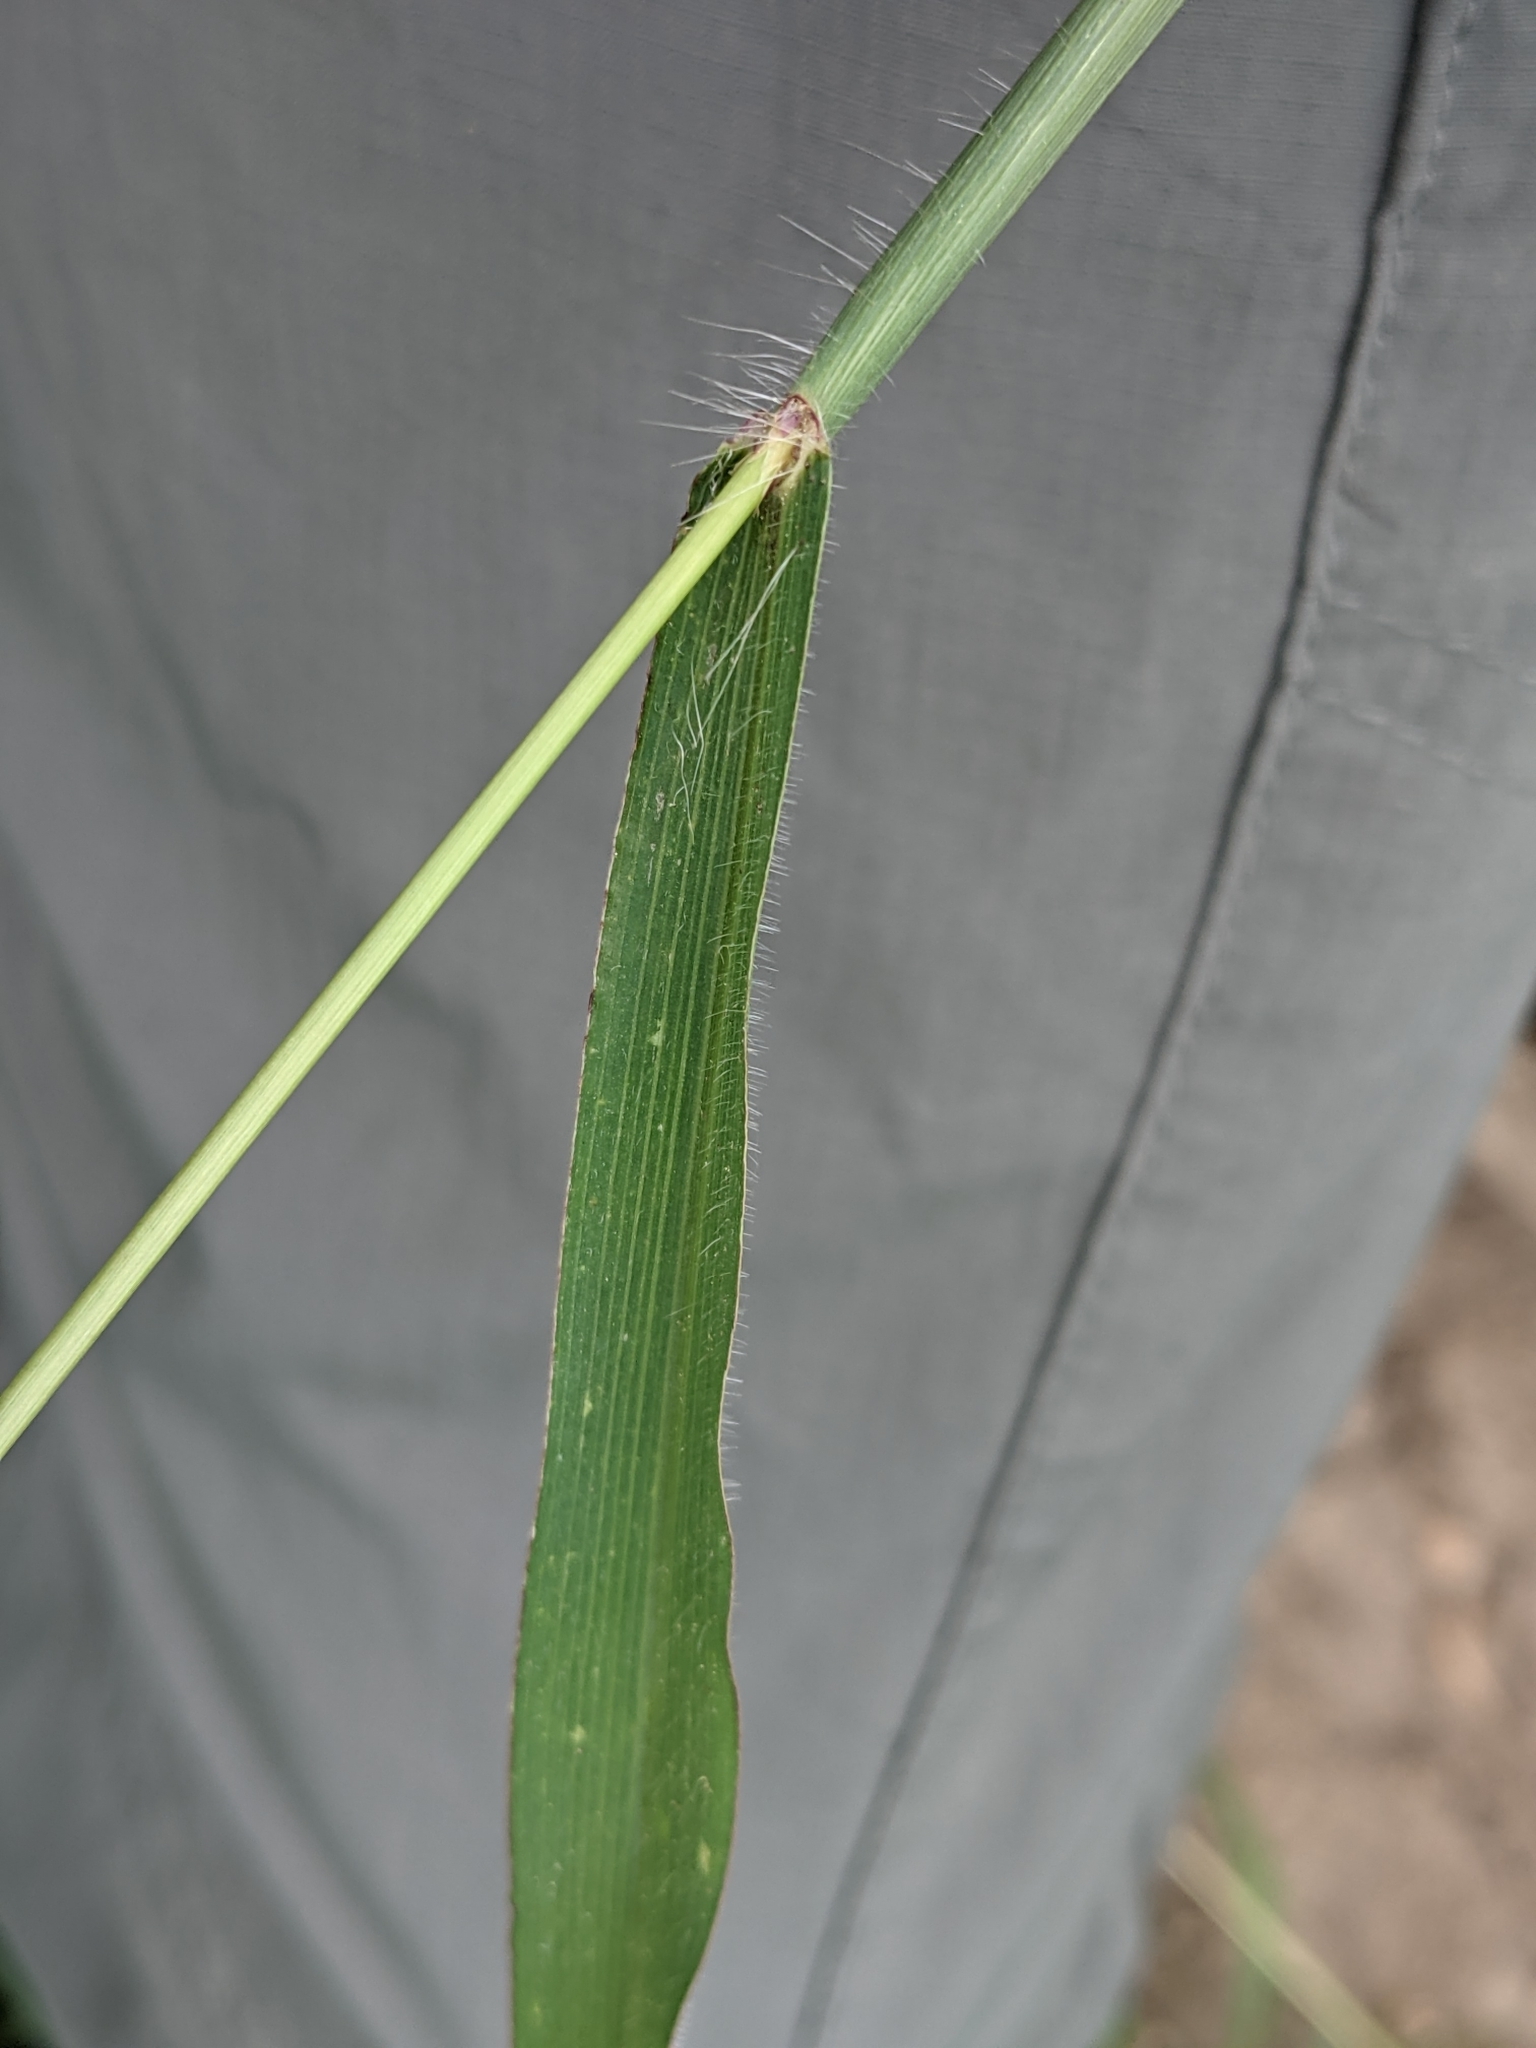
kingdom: Plantae
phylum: Tracheophyta
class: Liliopsida
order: Poales
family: Poaceae
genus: Digitaria
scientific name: Digitaria sanguinalis
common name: Hairy crabgrass
